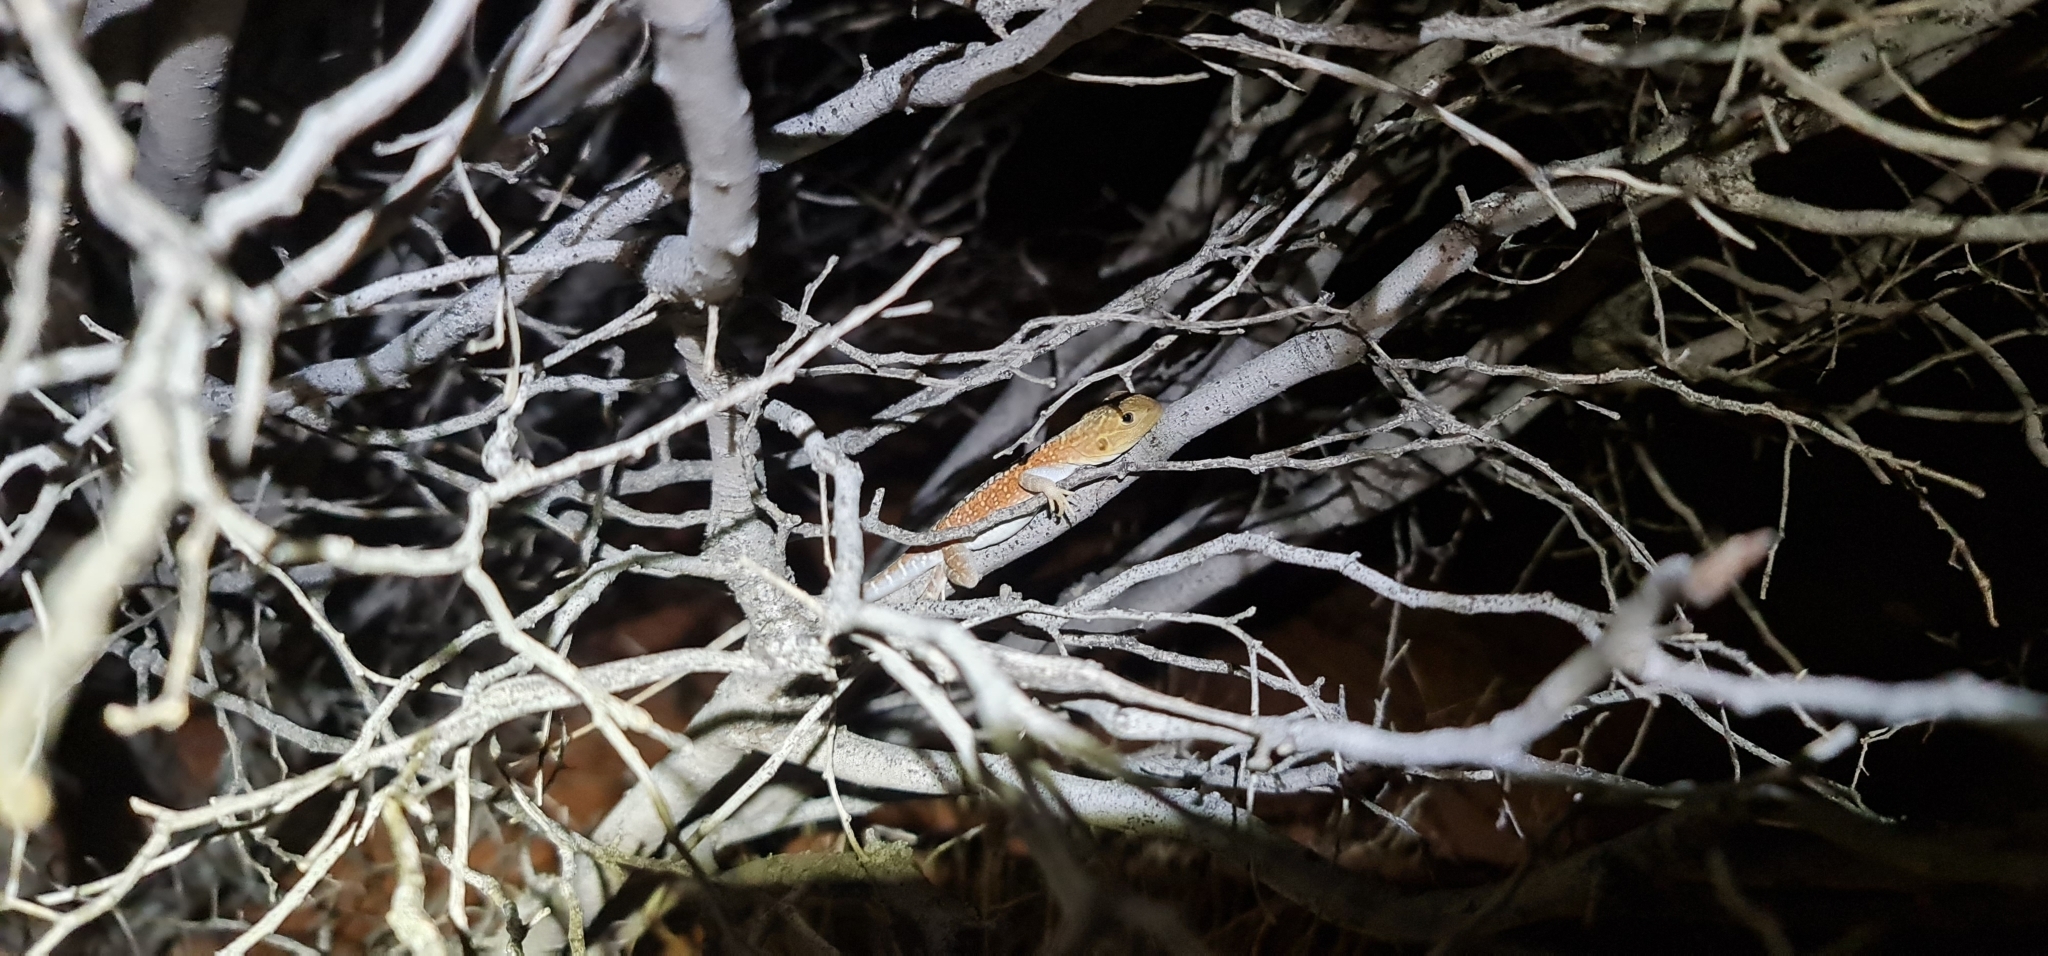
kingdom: Animalia
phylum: Chordata
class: Squamata
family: Agamidae
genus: Ctenophorus
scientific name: Ctenophorus pictus
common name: Painted dragon
